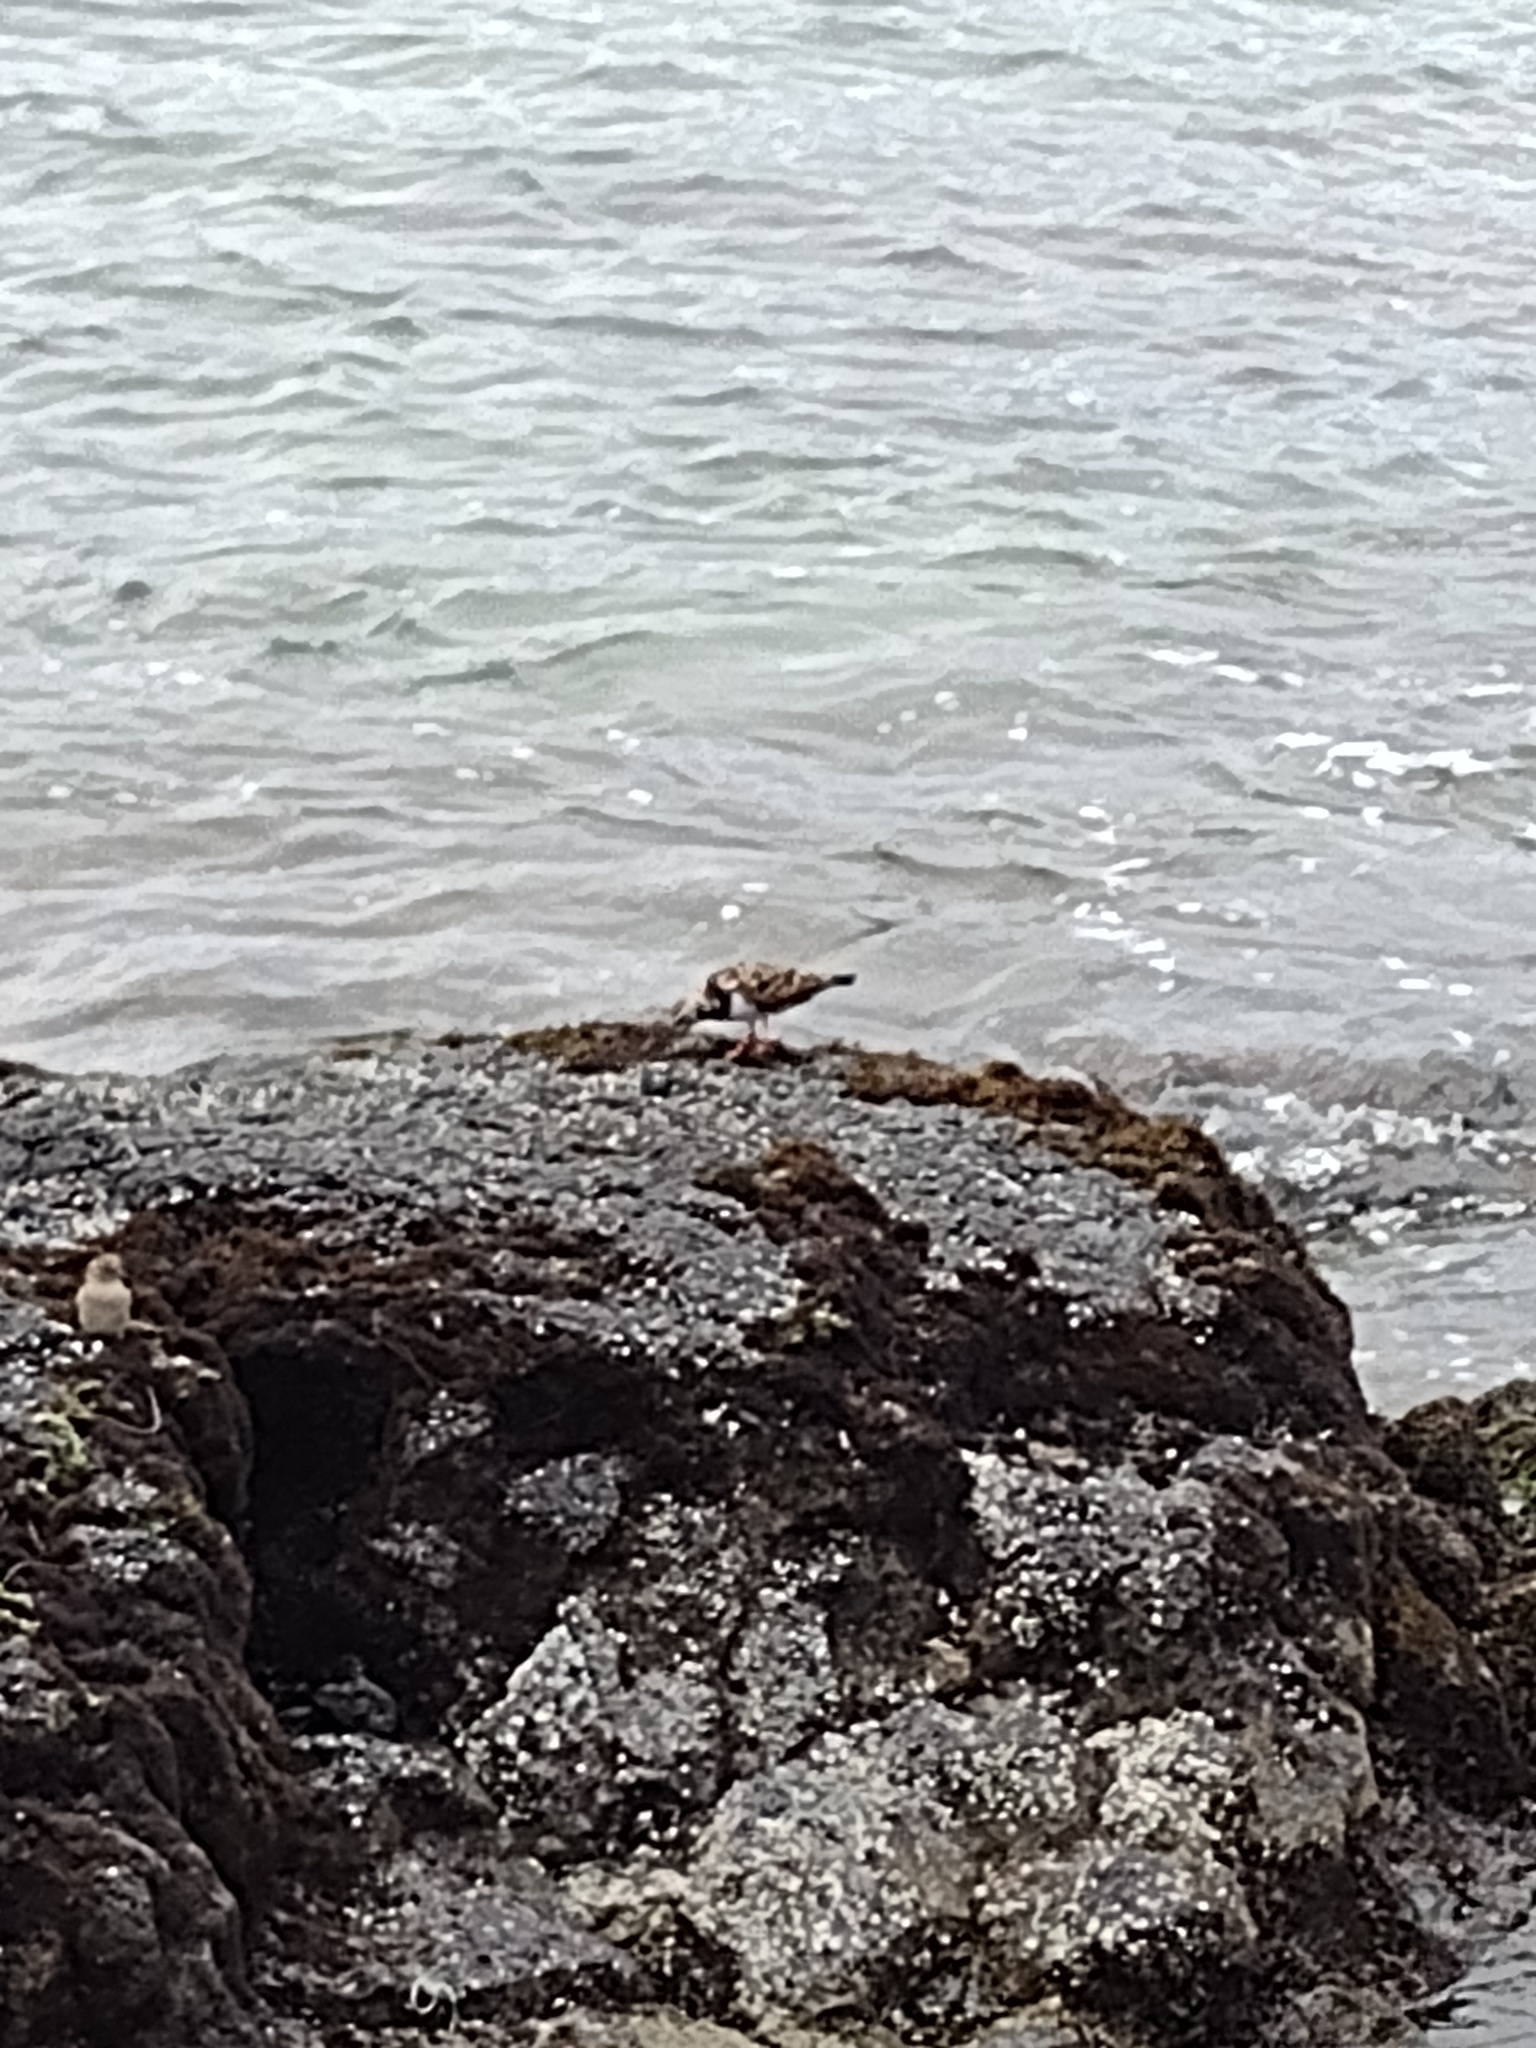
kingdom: Animalia
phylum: Chordata
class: Aves
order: Charadriiformes
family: Scolopacidae
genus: Arenaria
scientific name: Arenaria interpres
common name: Ruddy turnstone
